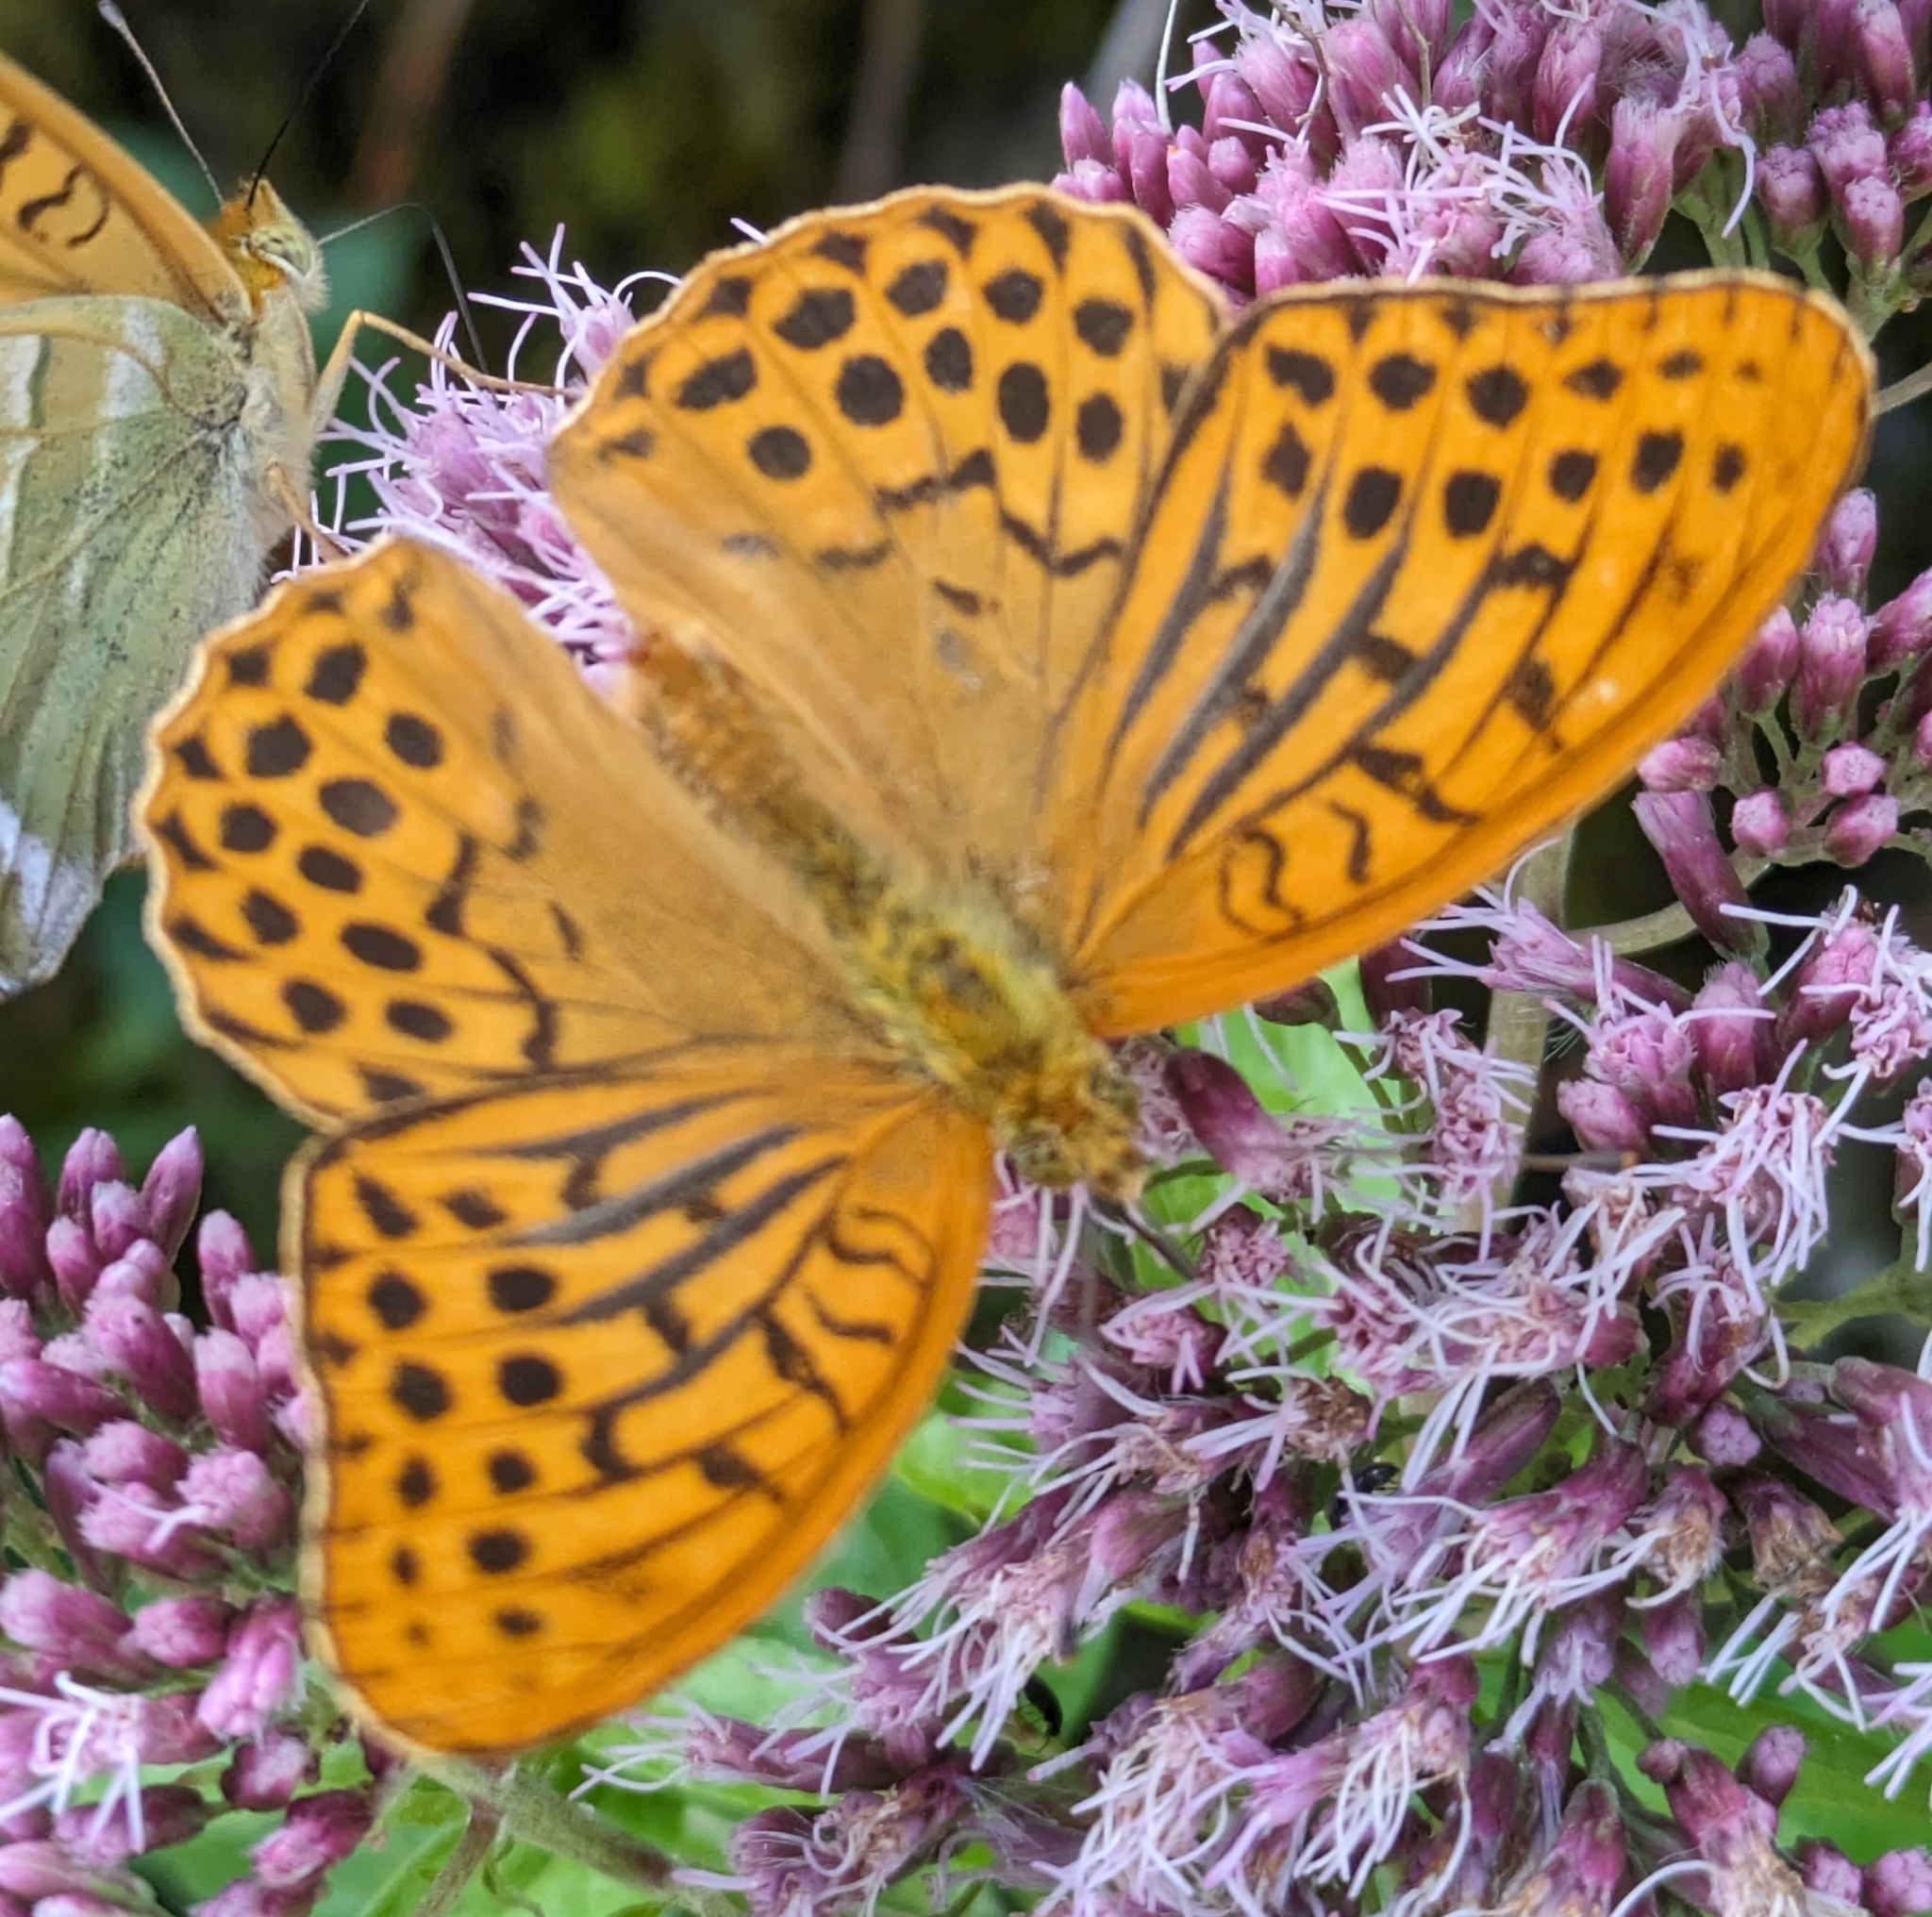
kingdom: Animalia
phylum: Arthropoda
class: Insecta
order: Lepidoptera
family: Nymphalidae
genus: Argynnis
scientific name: Argynnis paphia
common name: Silver-washed fritillary
